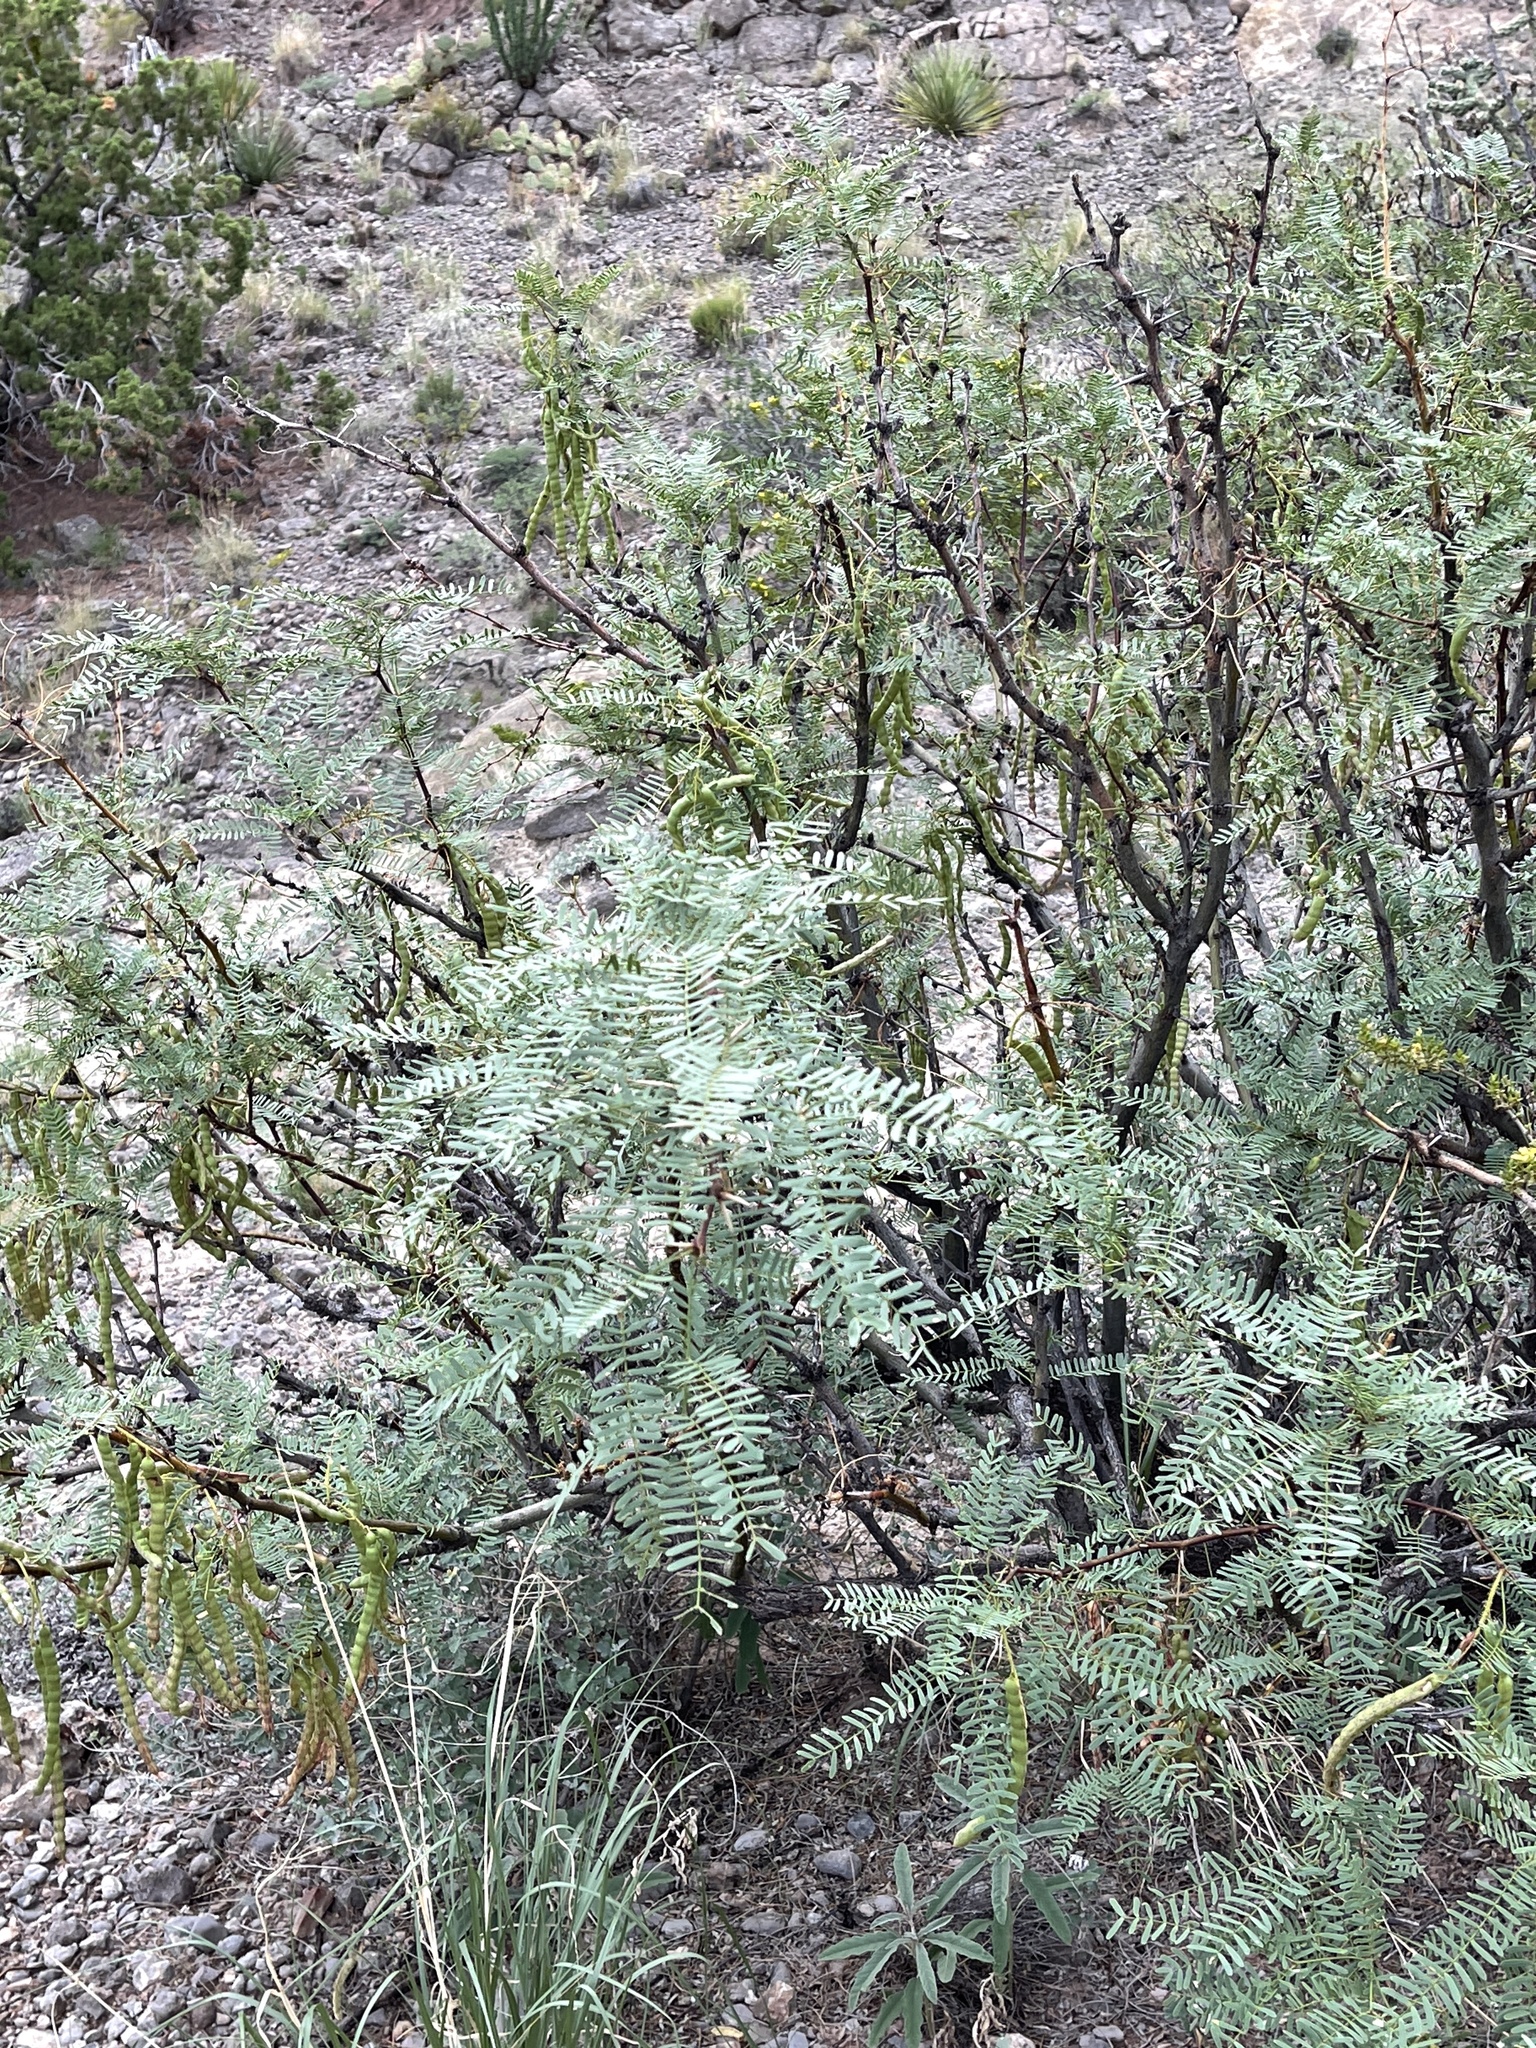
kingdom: Plantae
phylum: Tracheophyta
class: Magnoliopsida
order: Fabales
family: Fabaceae
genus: Prosopis
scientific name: Prosopis glandulosa
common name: Honey mesquite
